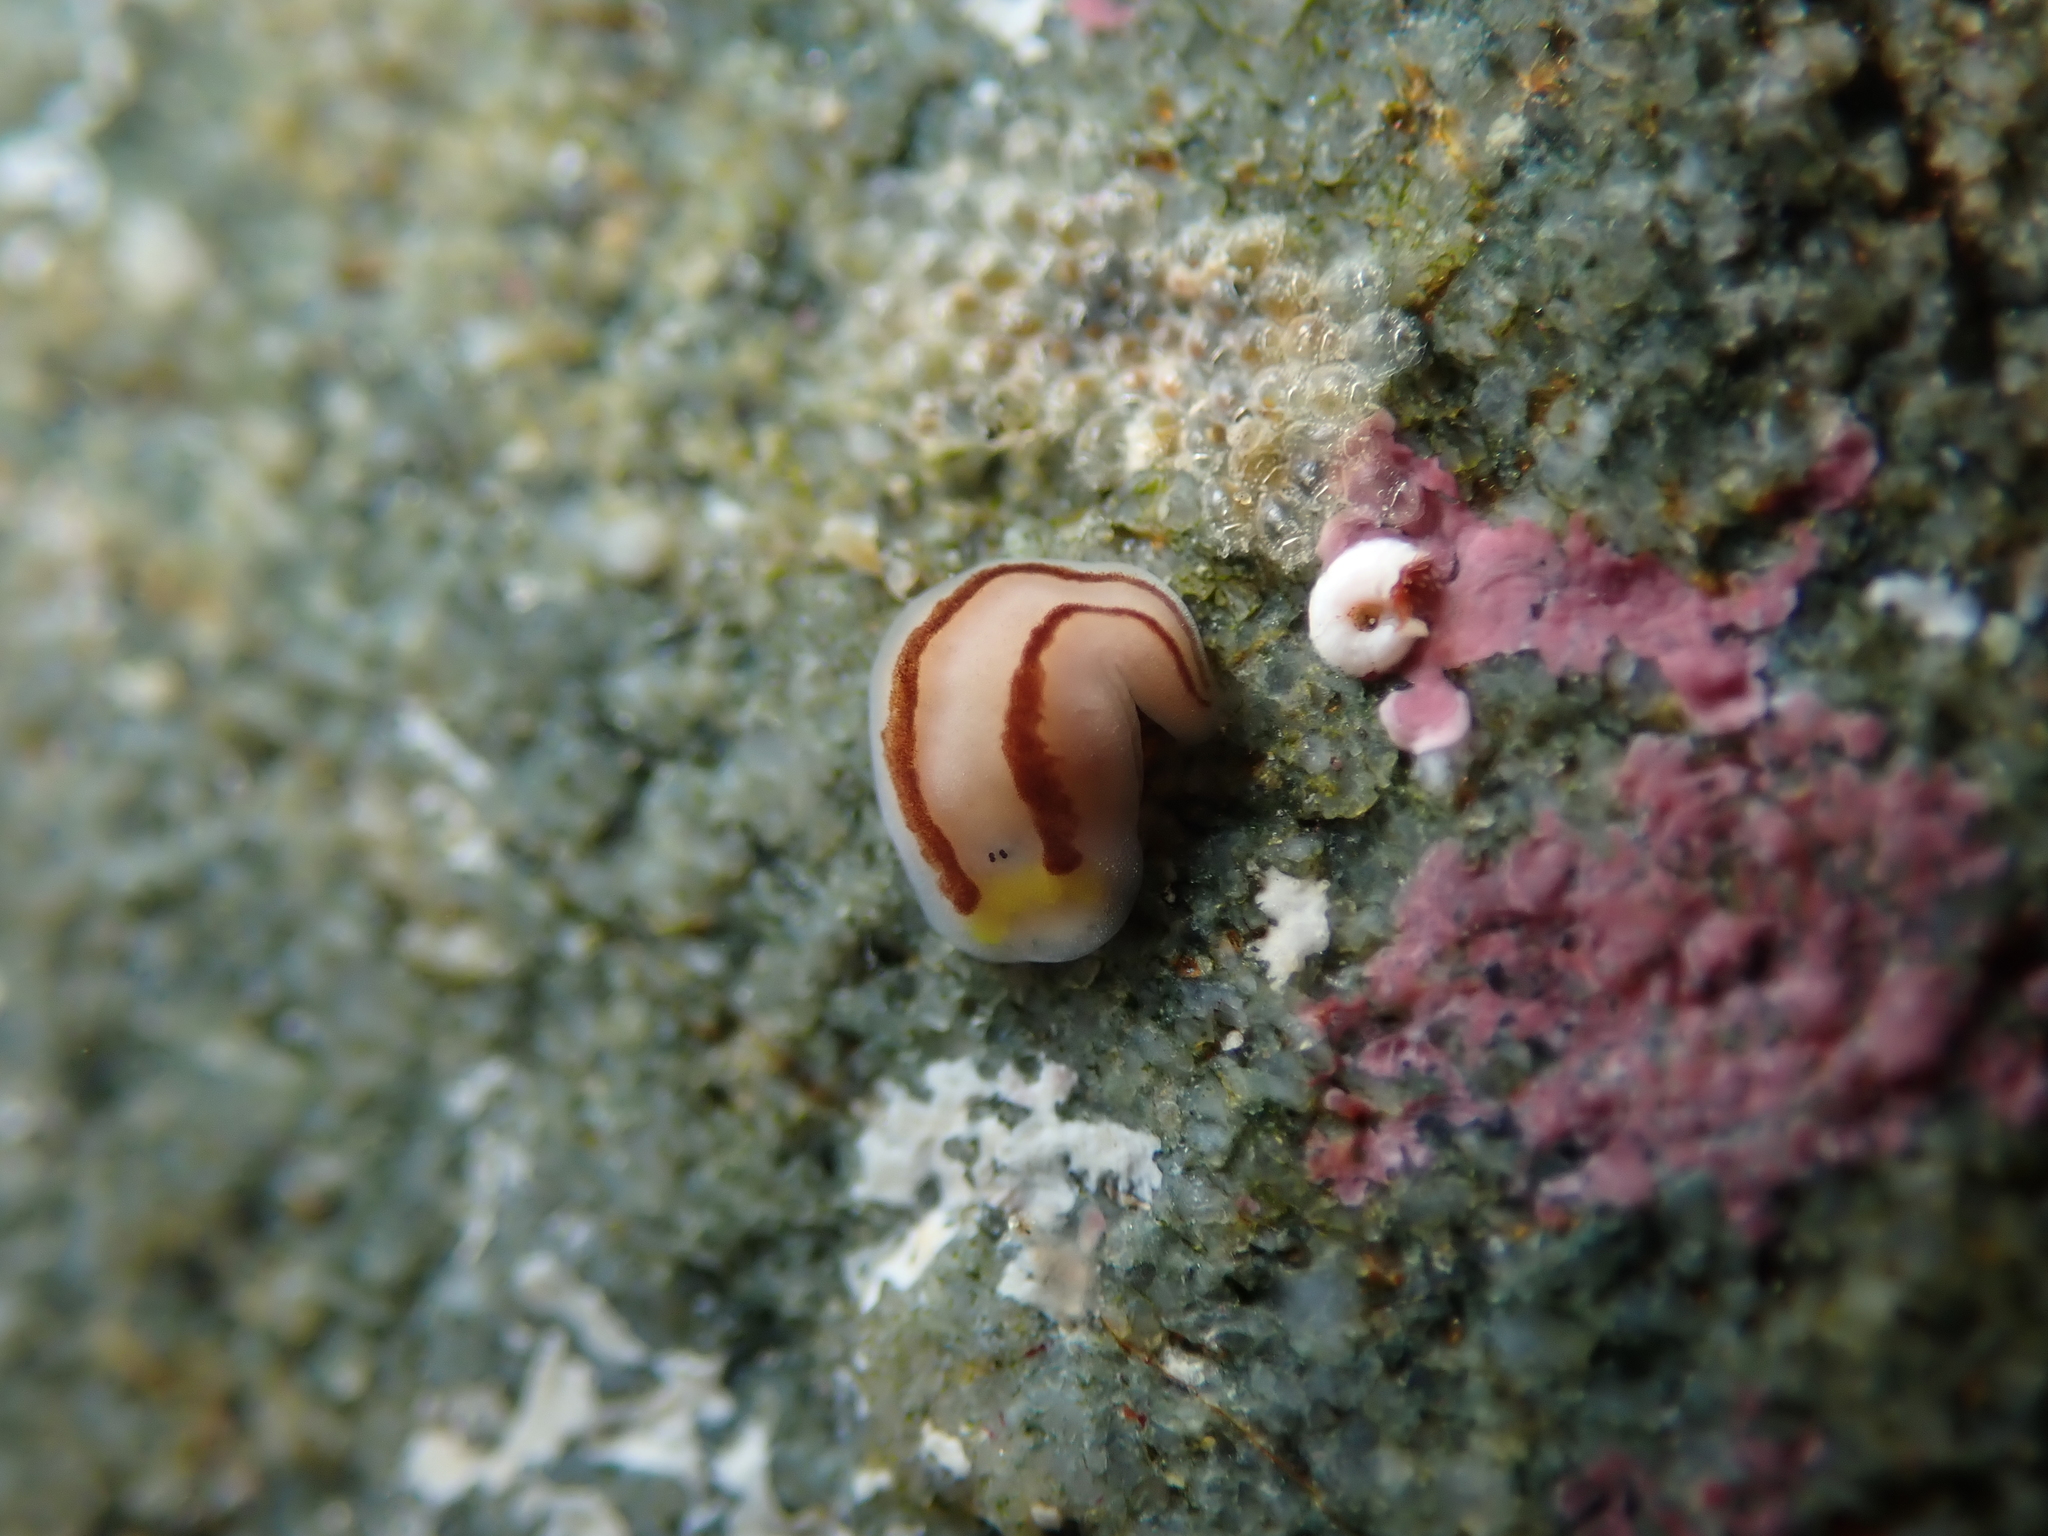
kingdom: Animalia
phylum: Platyhelminthes
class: Turbellaria
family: Chromoplanidae
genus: Chromoplana
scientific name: Chromoplana sirena
